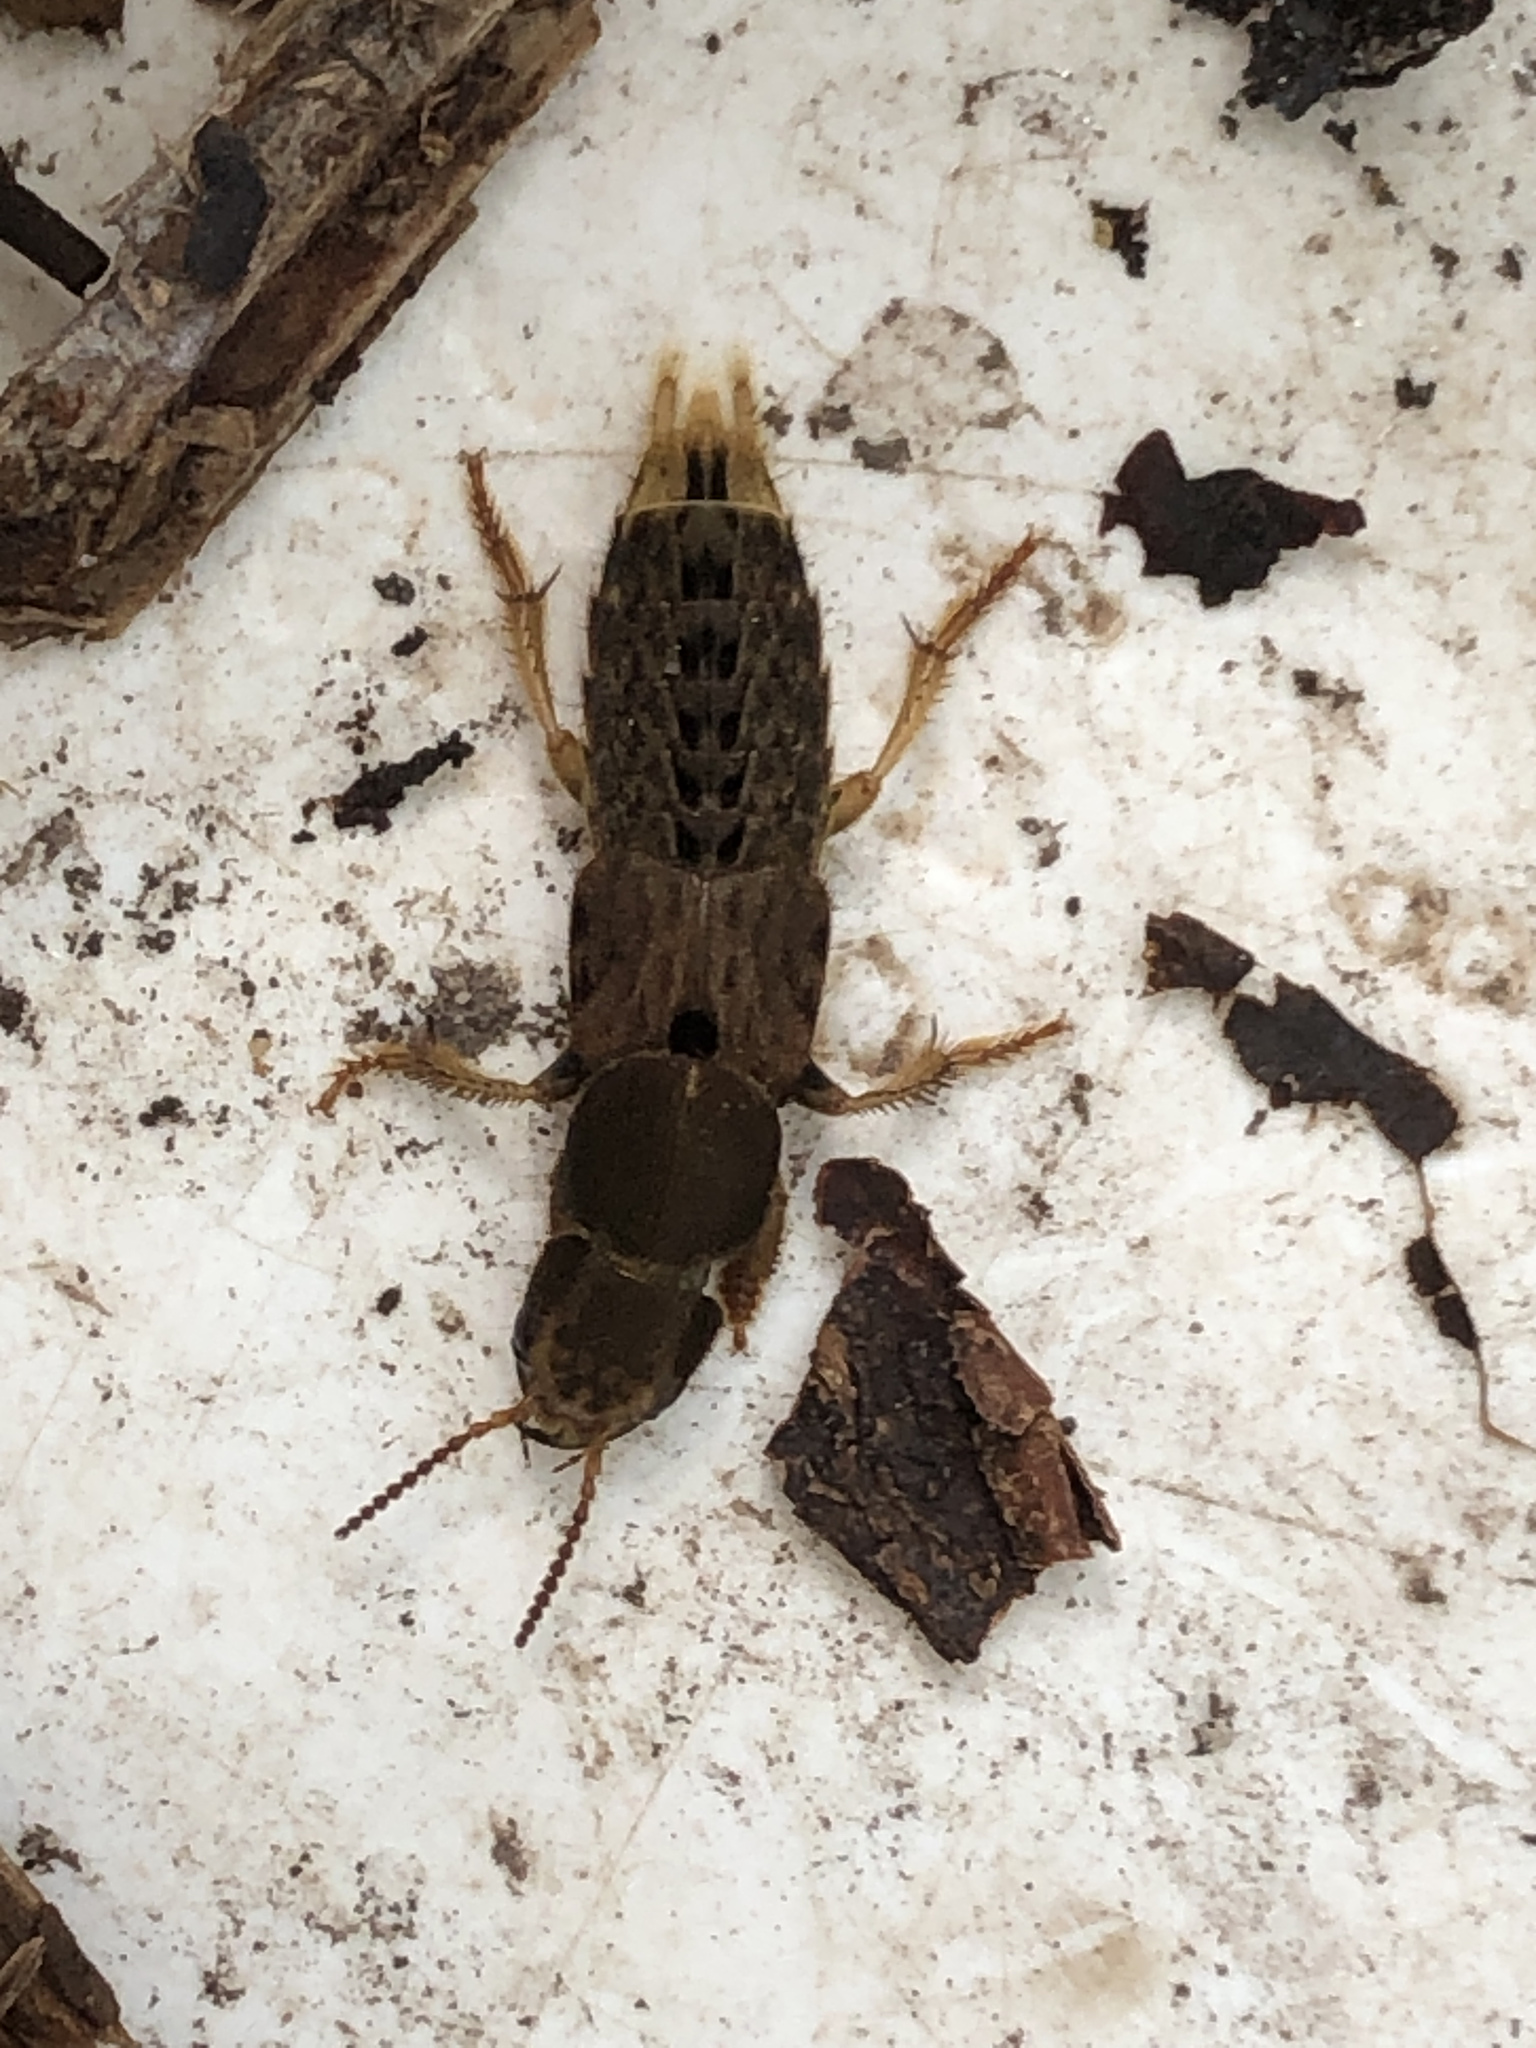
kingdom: Animalia
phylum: Arthropoda
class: Insecta
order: Coleoptera
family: Staphylinidae
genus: Platydracus
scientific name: Platydracus maculosus
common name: Brown rove beetle
